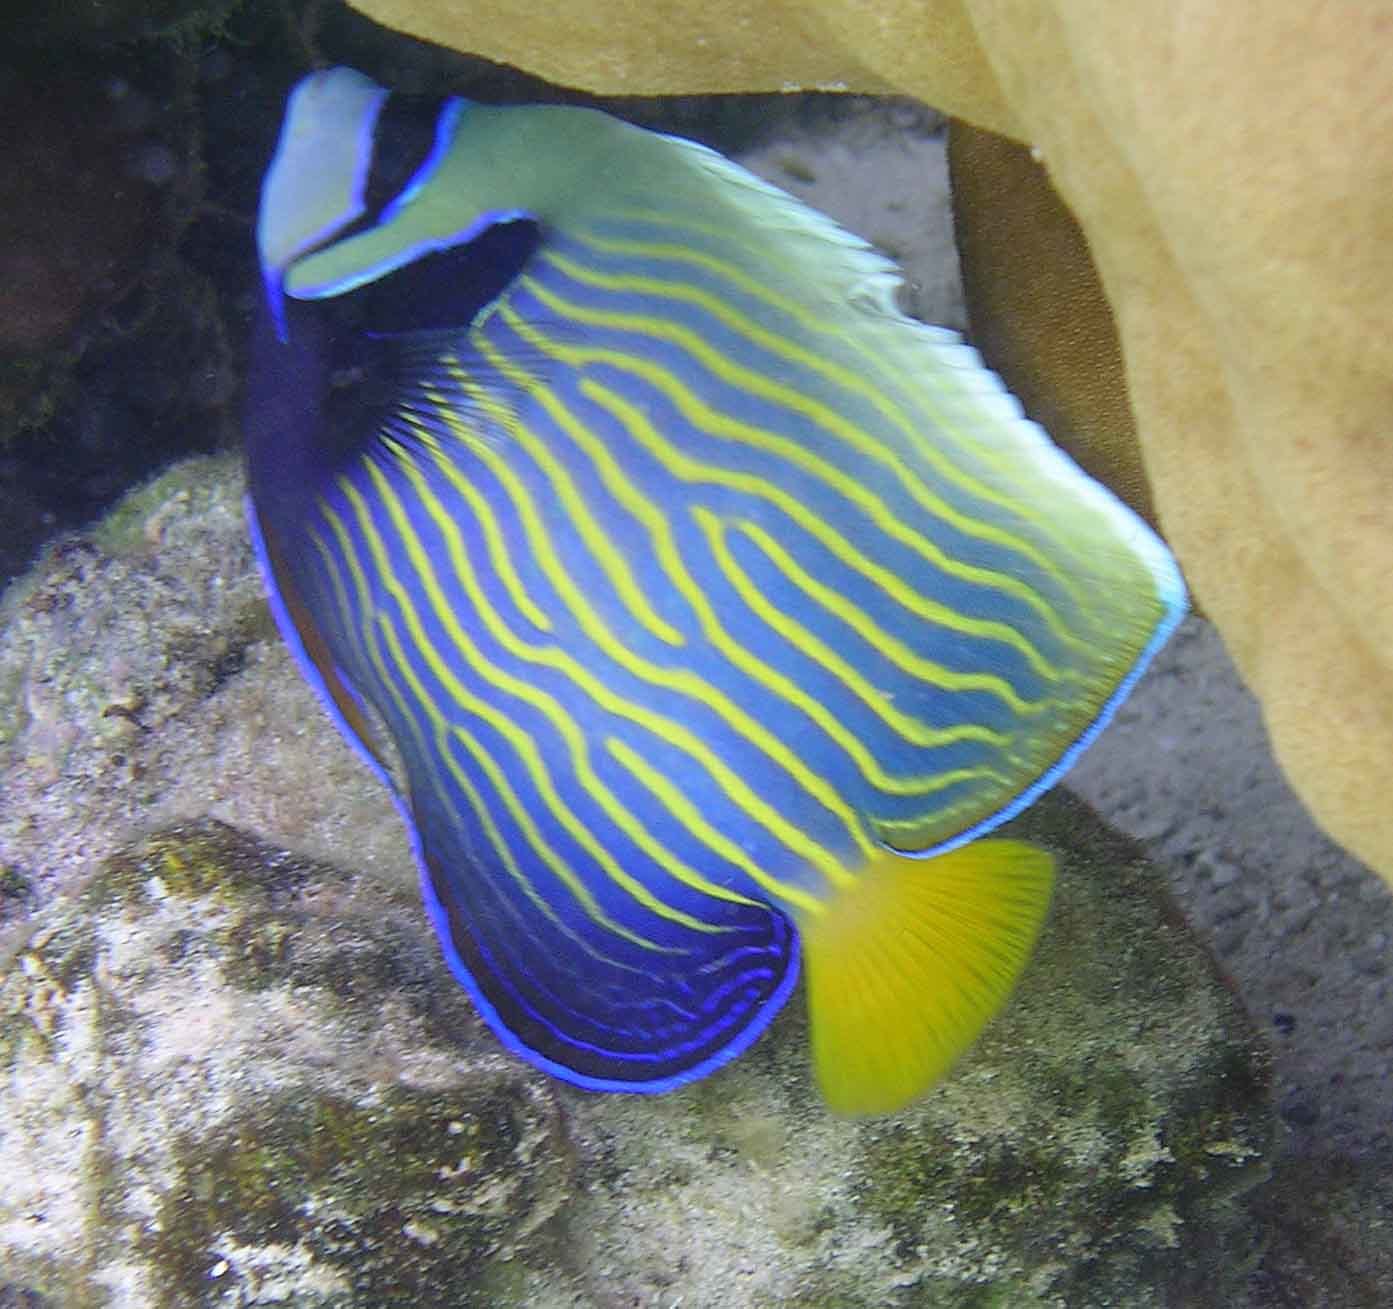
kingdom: Animalia
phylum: Chordata
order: Perciformes
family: Pomacanthidae
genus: Pomacanthus
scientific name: Pomacanthus imperator
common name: Emperor angelfish
